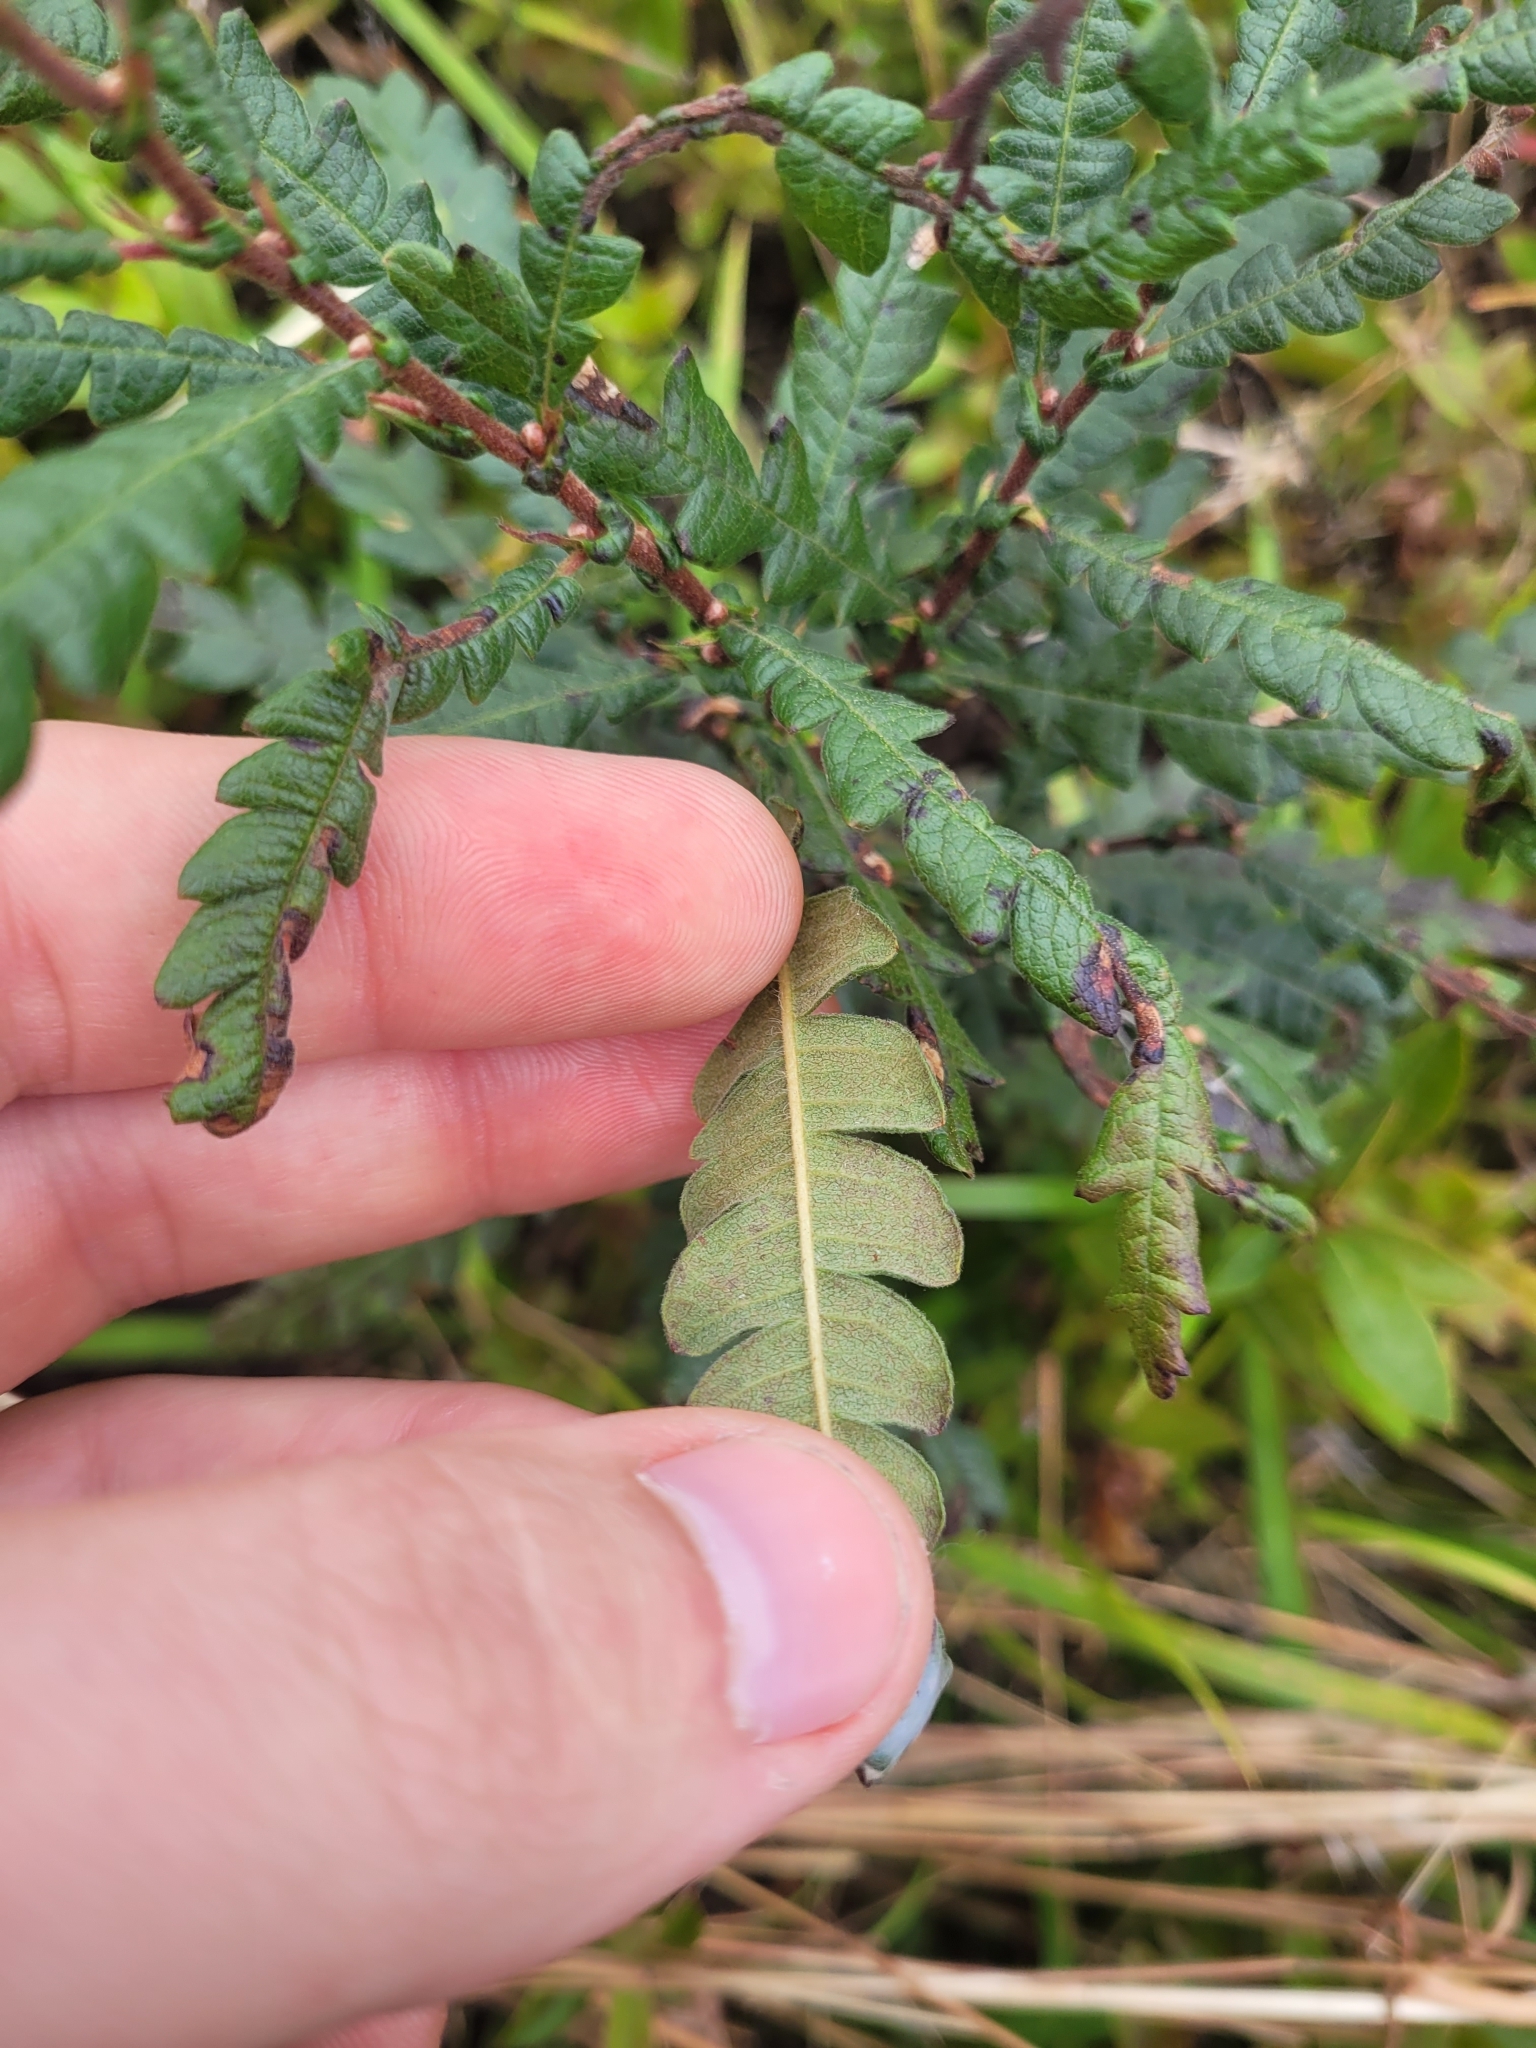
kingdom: Plantae
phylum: Tracheophyta
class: Magnoliopsida
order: Fagales
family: Myricaceae
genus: Comptonia
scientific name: Comptonia peregrina
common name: Sweet-fern
